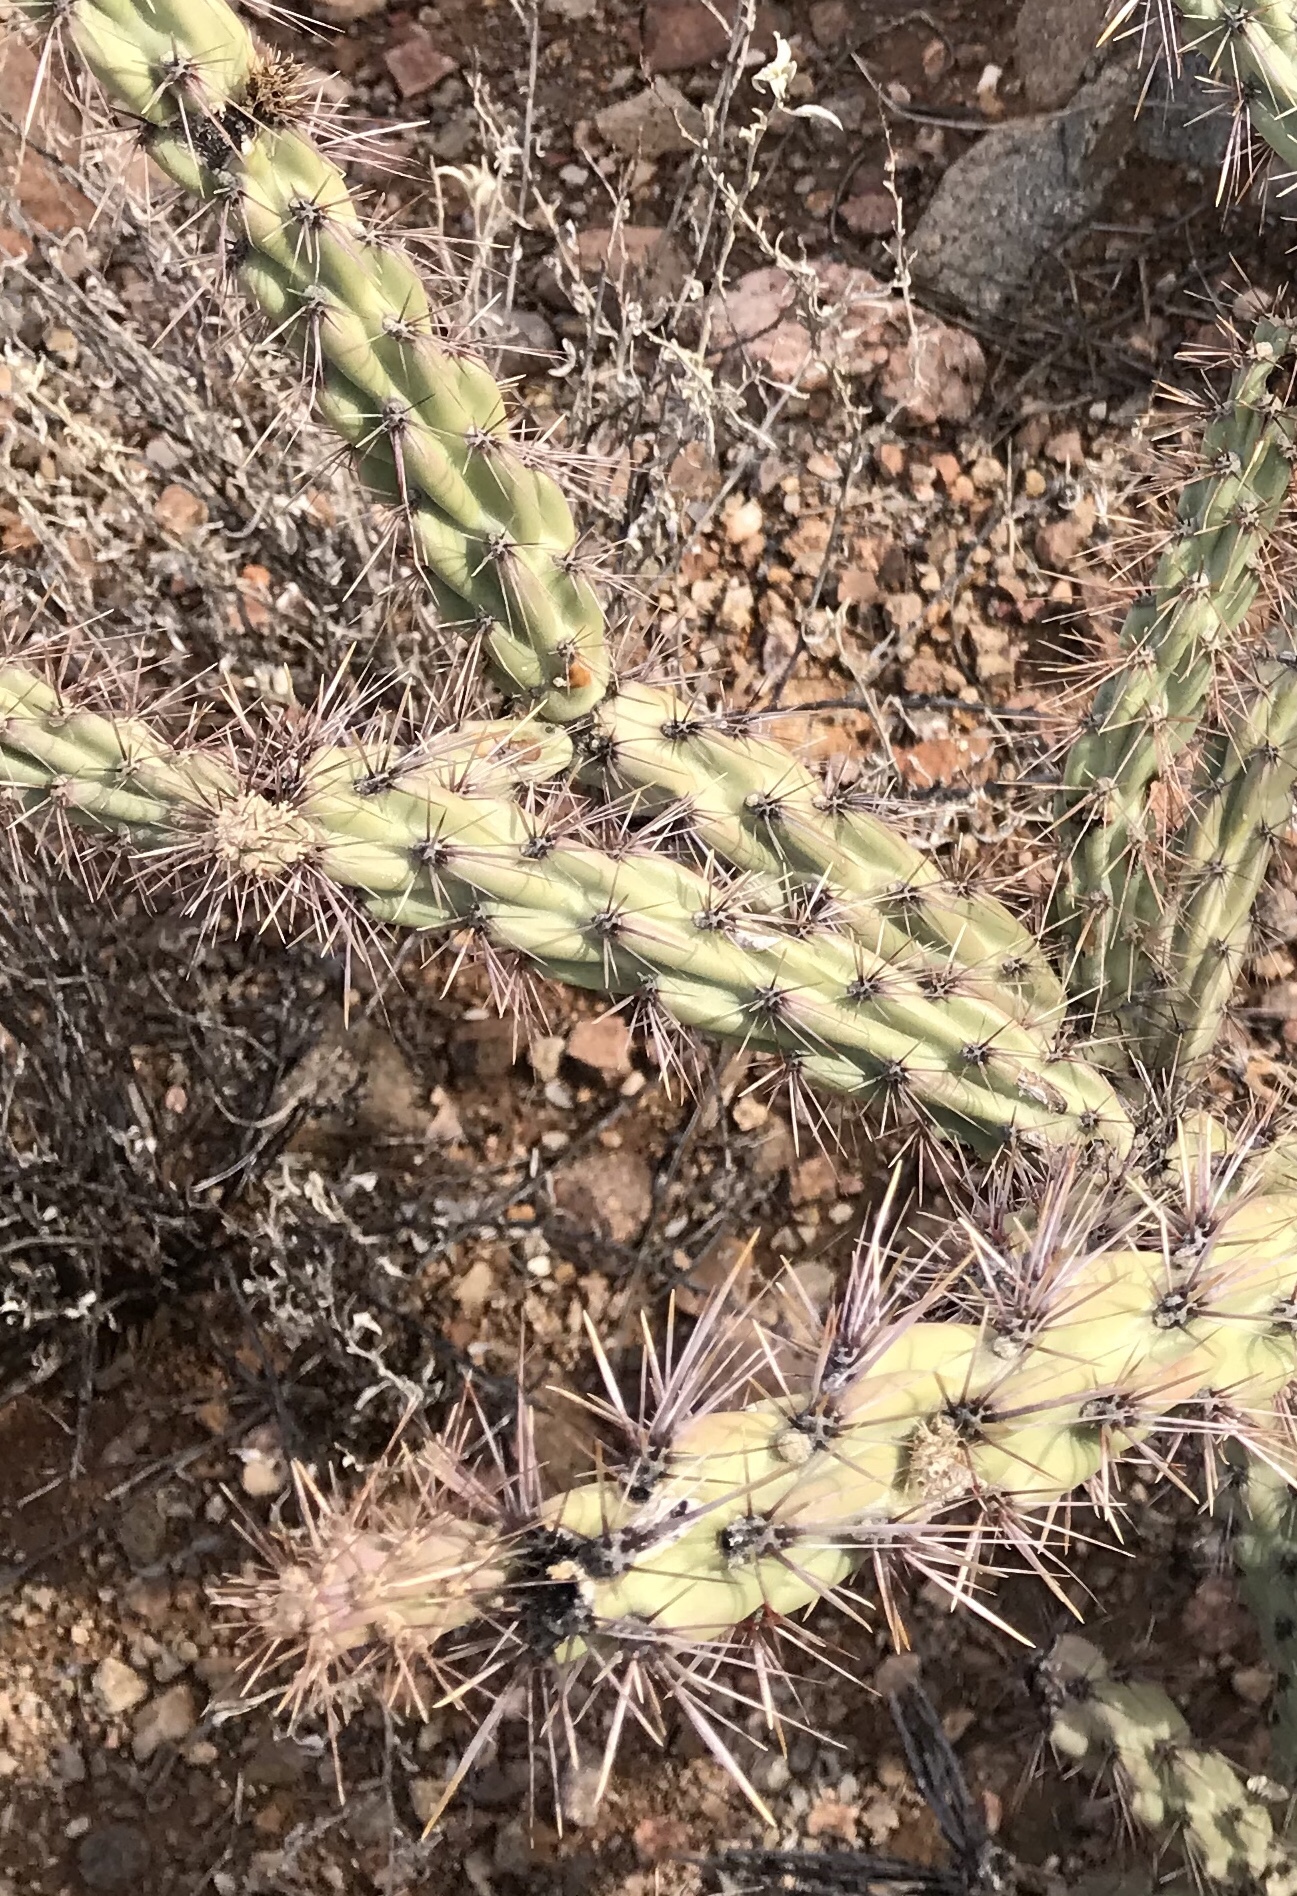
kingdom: Plantae
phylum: Tracheophyta
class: Magnoliopsida
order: Caryophyllales
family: Cactaceae
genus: Cylindropuntia
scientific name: Cylindropuntia acanthocarpa
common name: Buckhorn cholla
